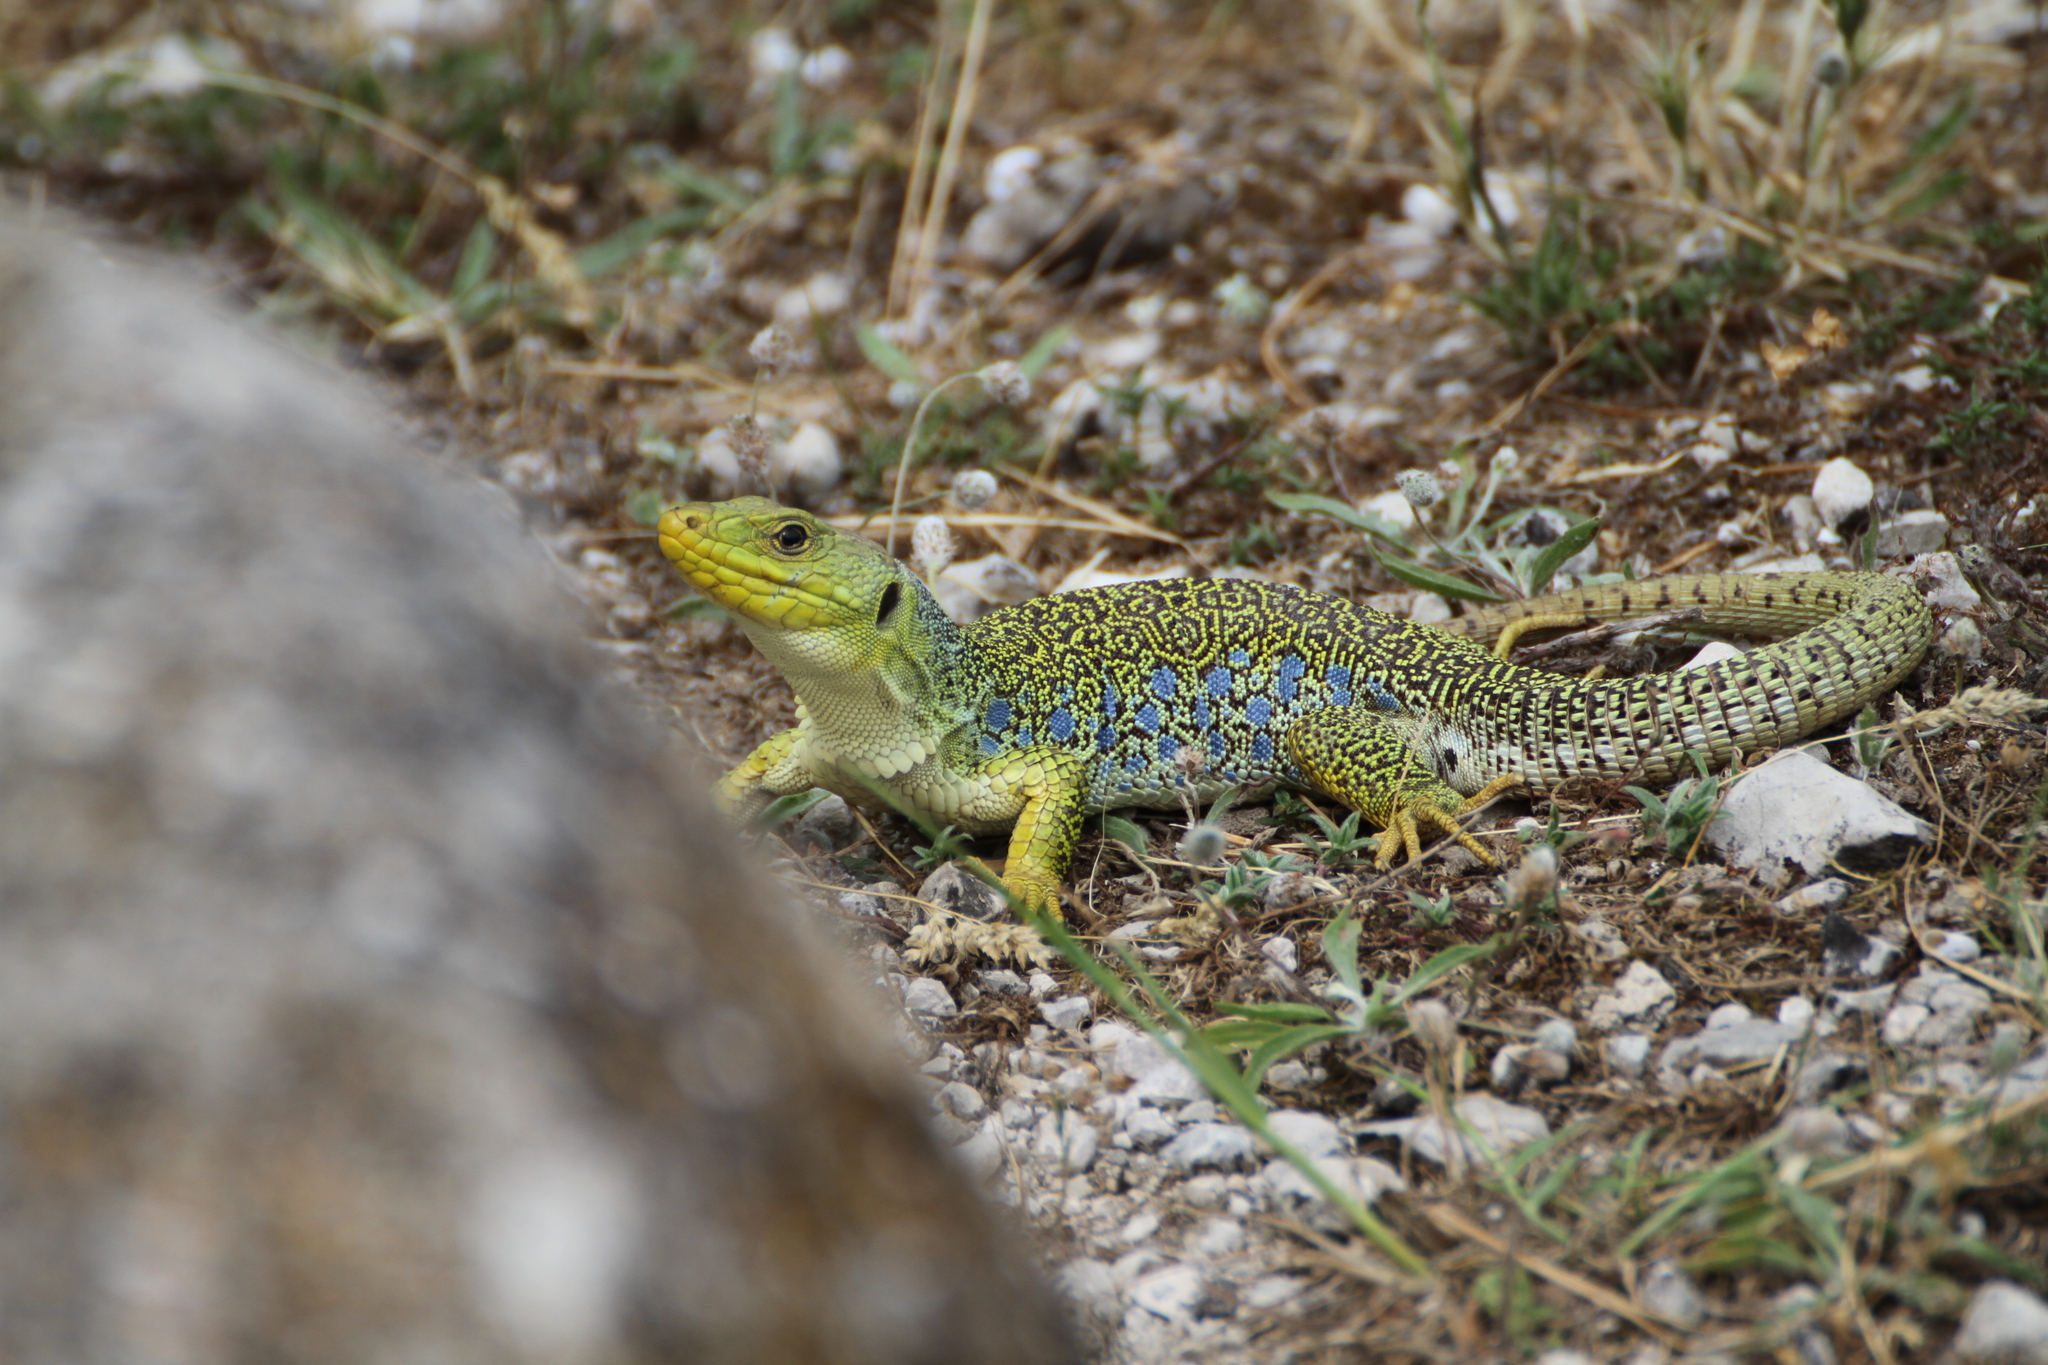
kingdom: Animalia
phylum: Chordata
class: Squamata
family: Lacertidae
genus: Timon
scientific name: Timon lepidus
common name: Ocellated lizard
